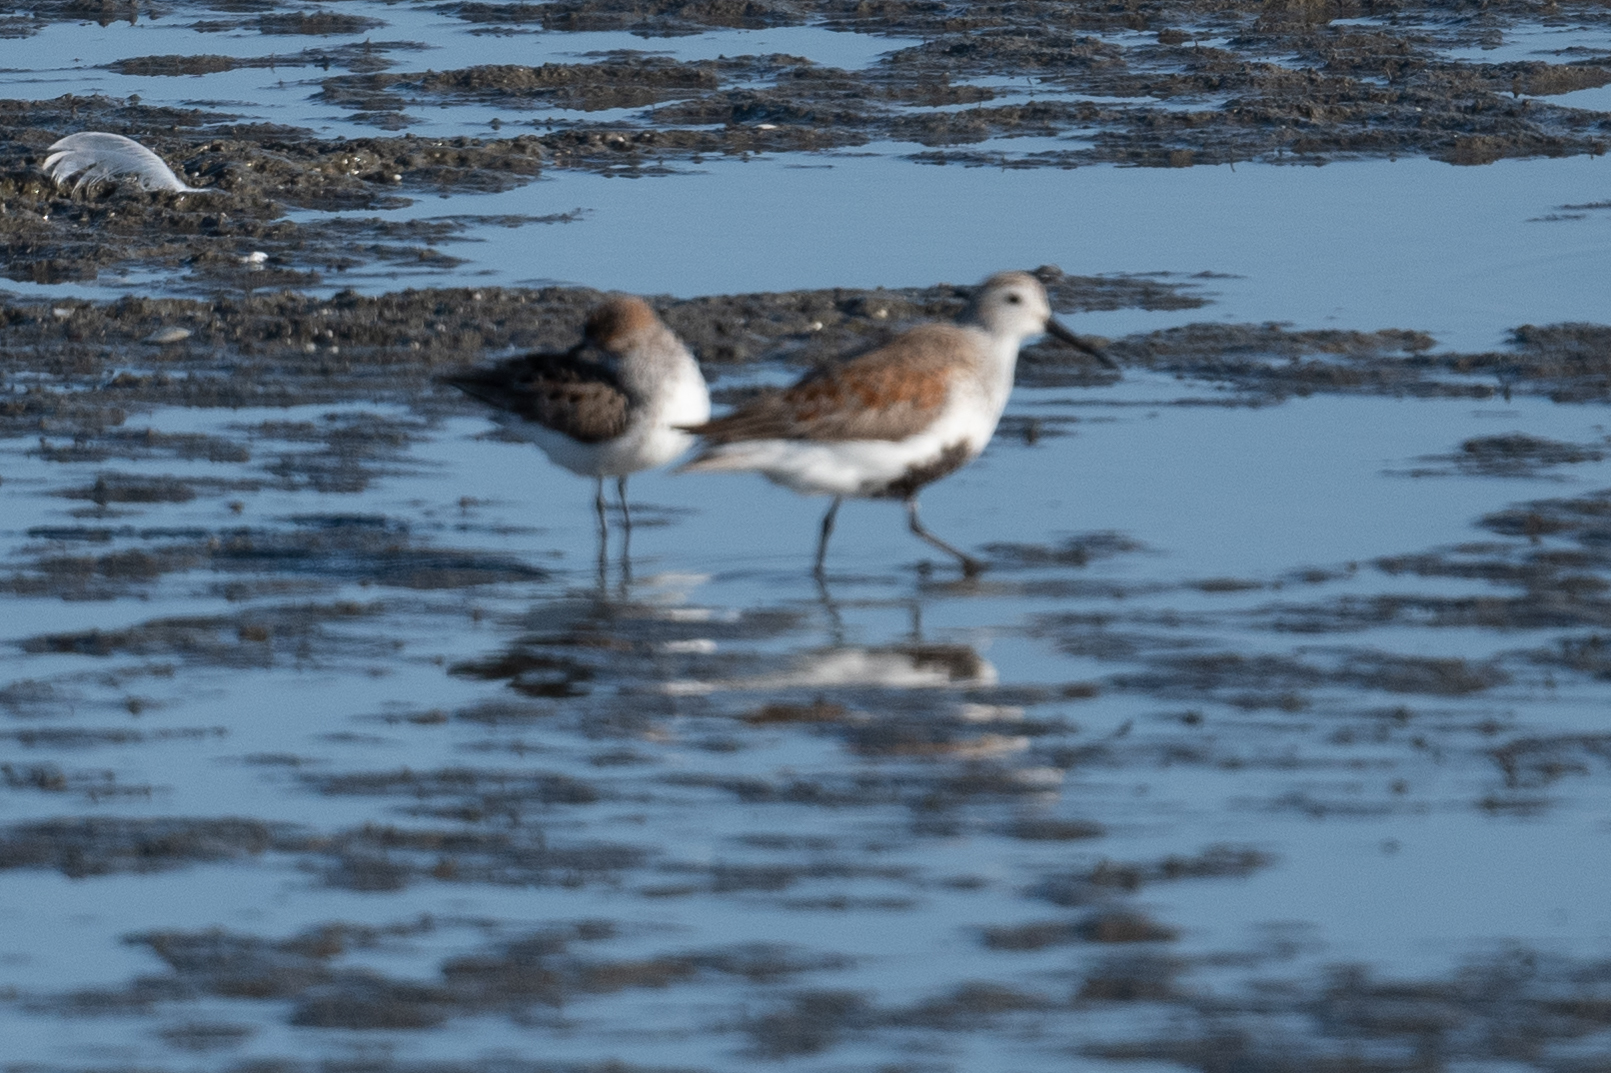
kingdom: Animalia
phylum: Chordata
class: Aves
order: Charadriiformes
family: Scolopacidae
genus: Calidris
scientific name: Calidris alpina
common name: Dunlin
